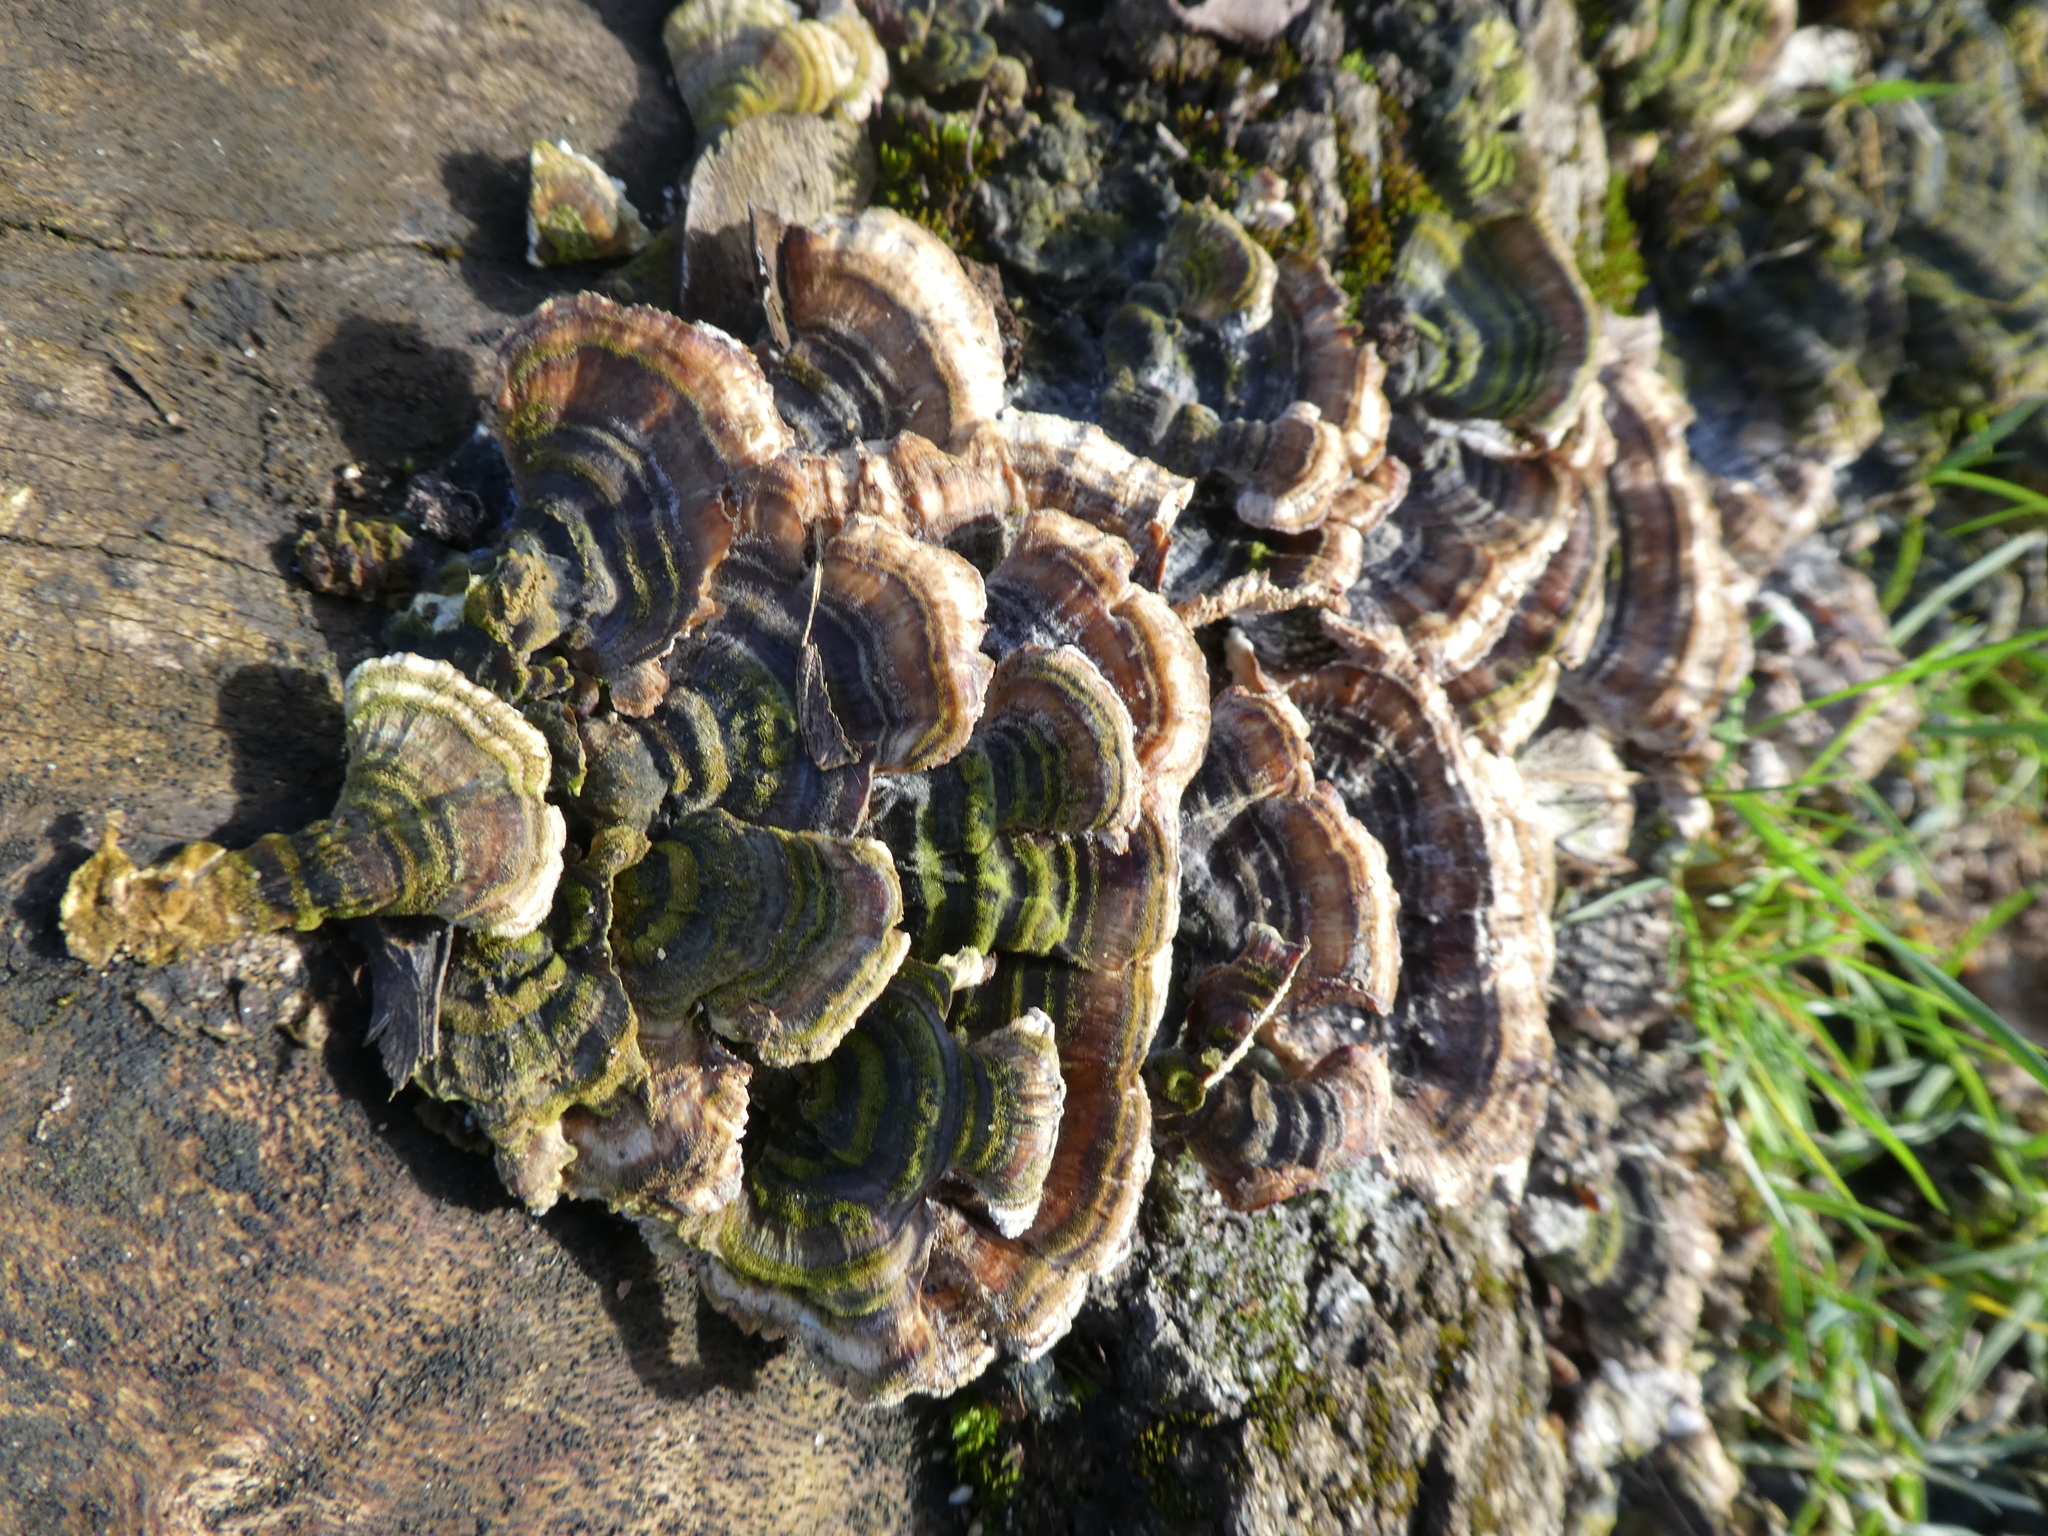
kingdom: Fungi
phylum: Basidiomycota
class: Agaricomycetes
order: Polyporales
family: Polyporaceae
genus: Trametes
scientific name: Trametes versicolor
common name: Turkeytail
